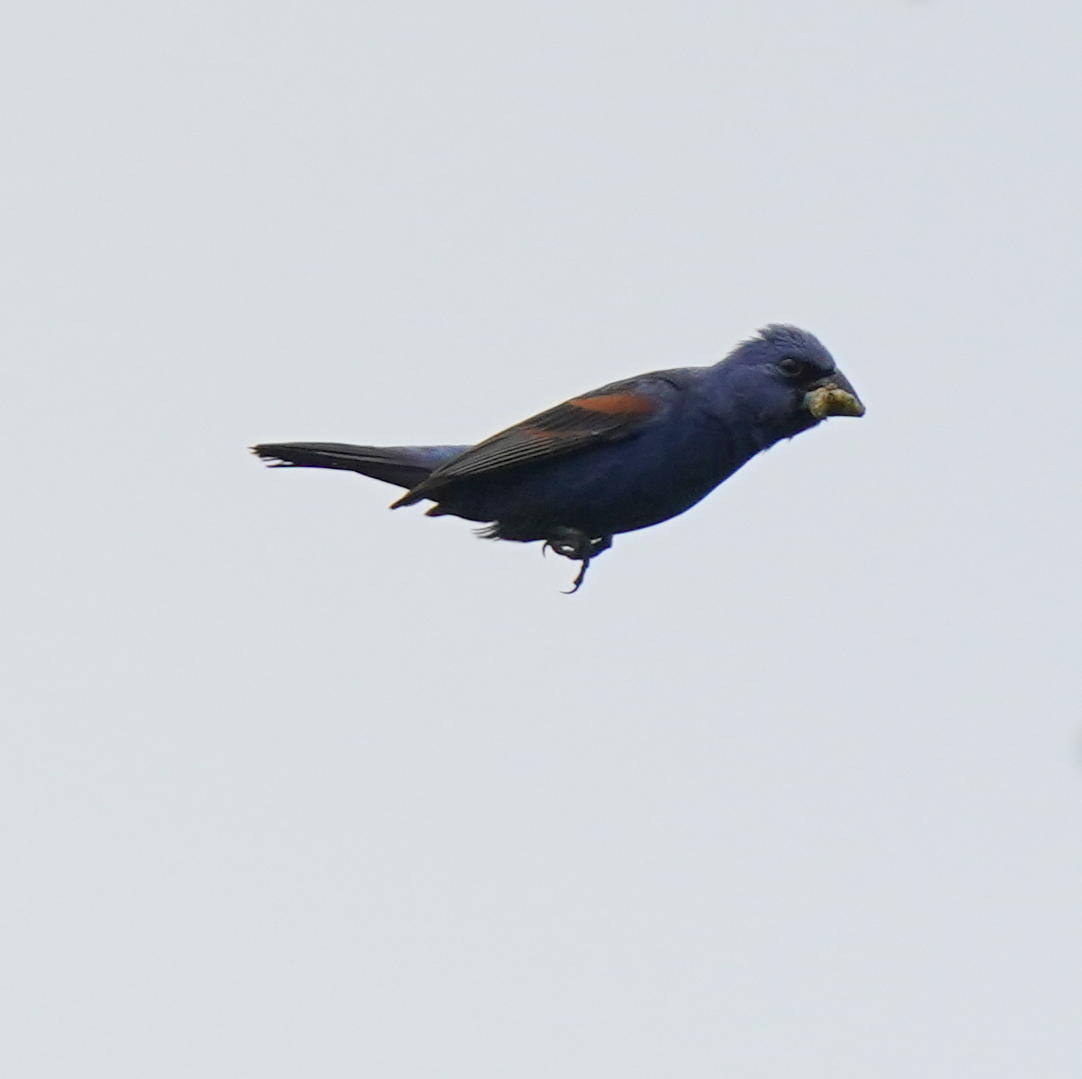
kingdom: Animalia
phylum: Chordata
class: Aves
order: Passeriformes
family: Cardinalidae
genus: Passerina
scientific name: Passerina caerulea
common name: Blue grosbeak
